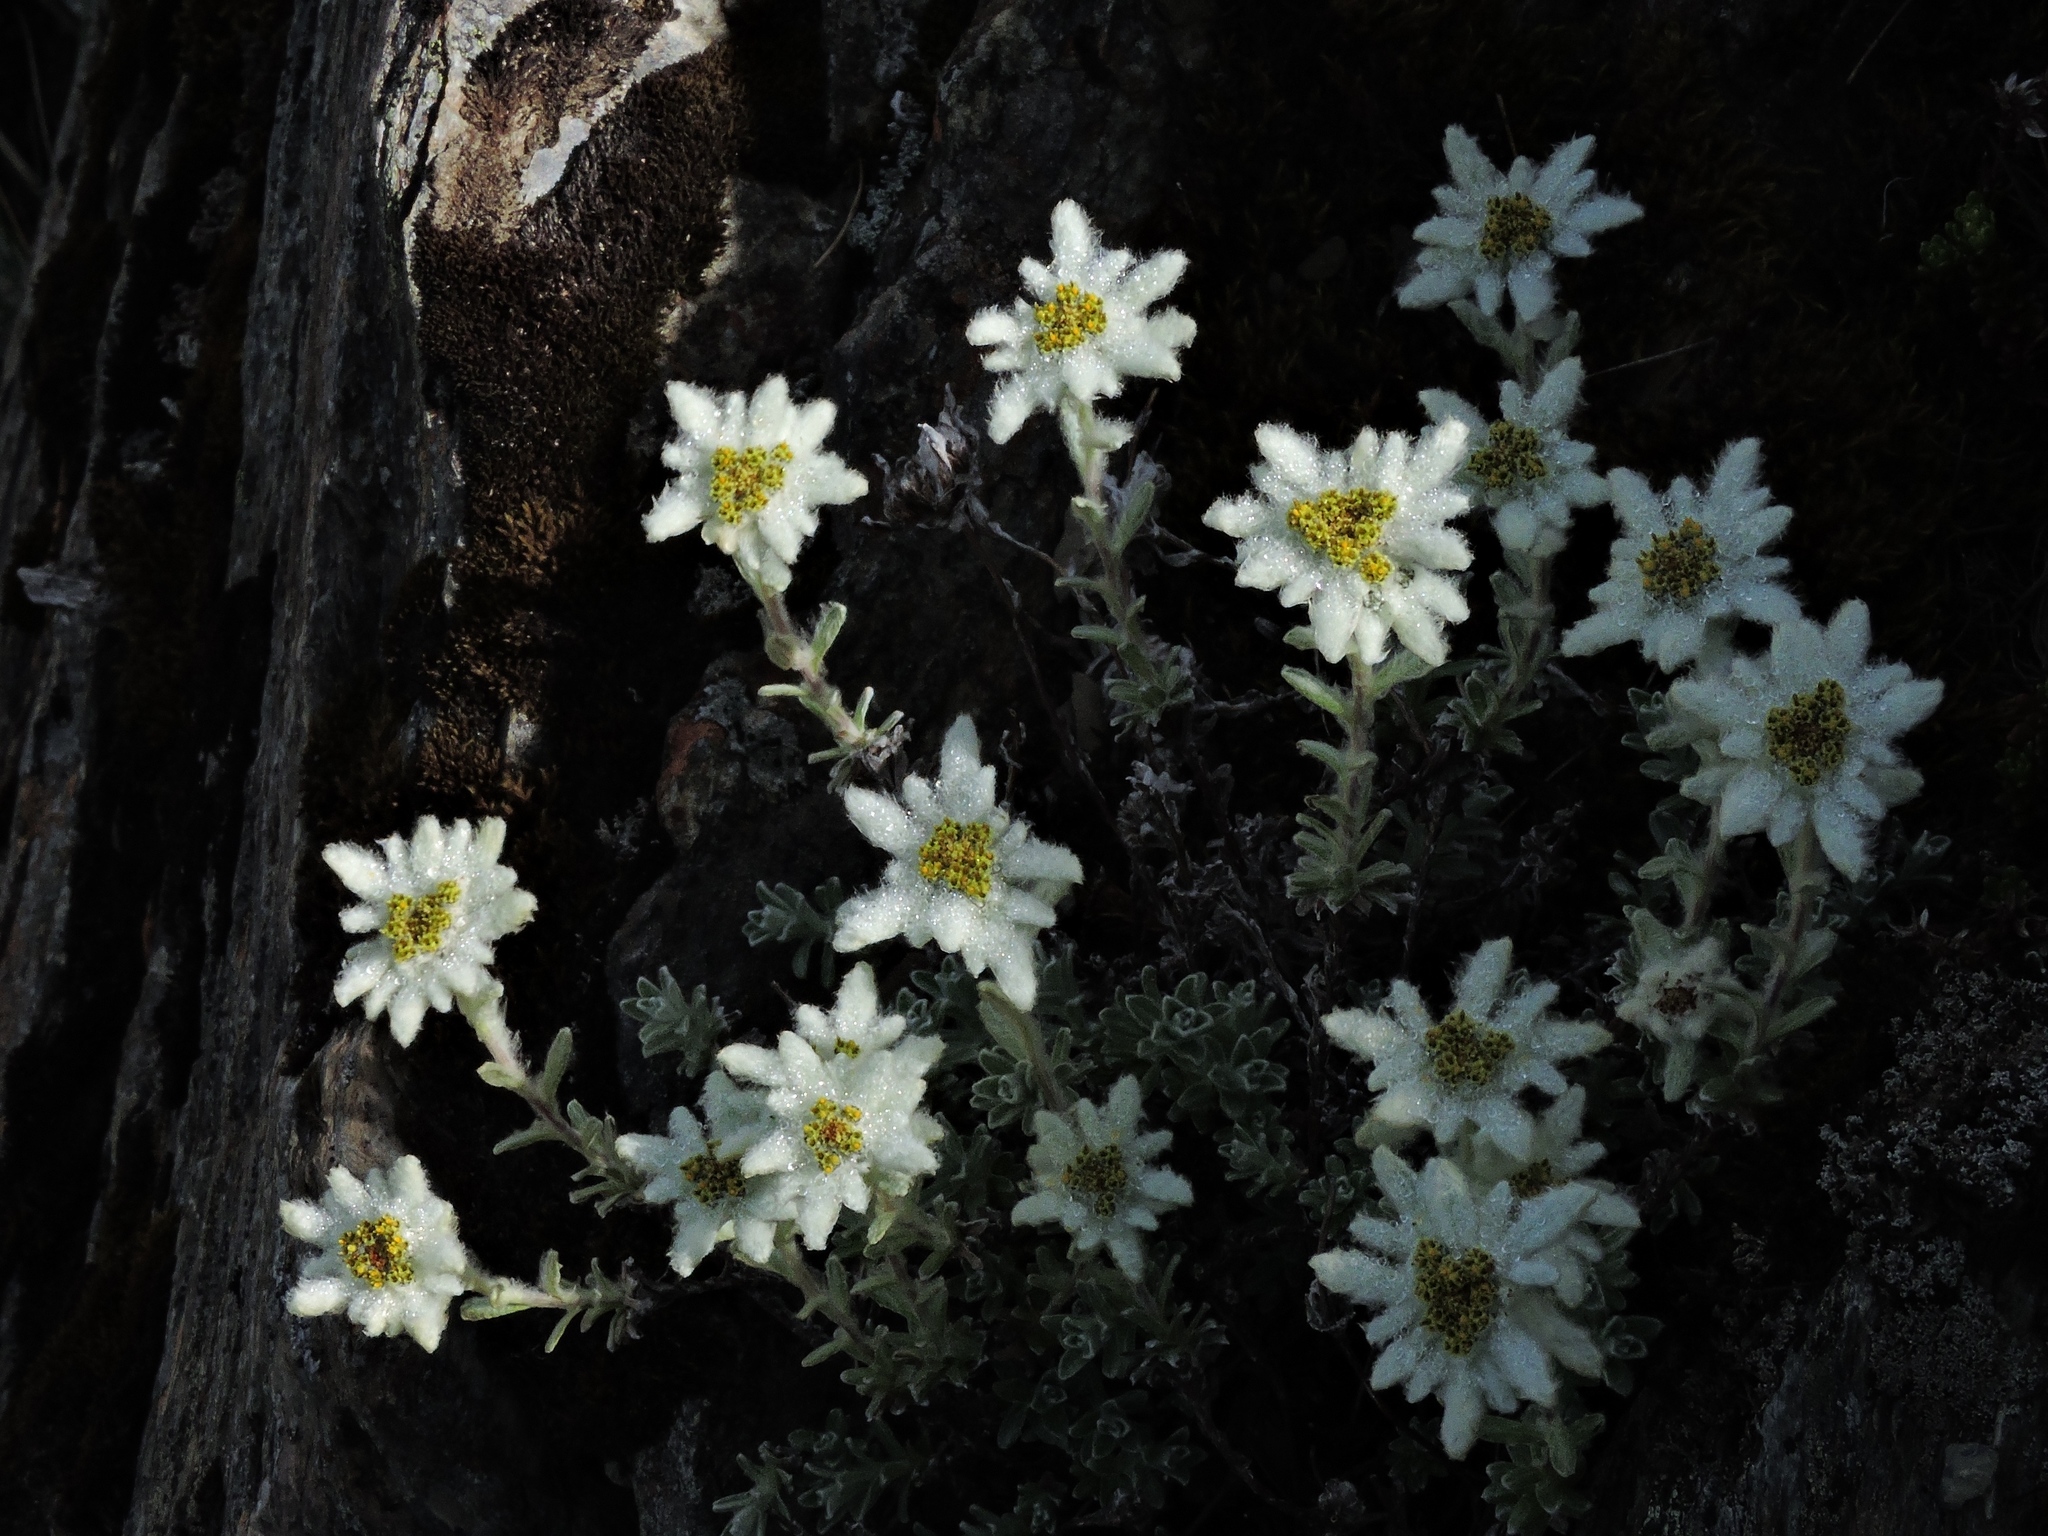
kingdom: Plantae
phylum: Tracheophyta
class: Magnoliopsida
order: Asterales
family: Asteraceae
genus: Leontopodium
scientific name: Leontopodium microphyllum
